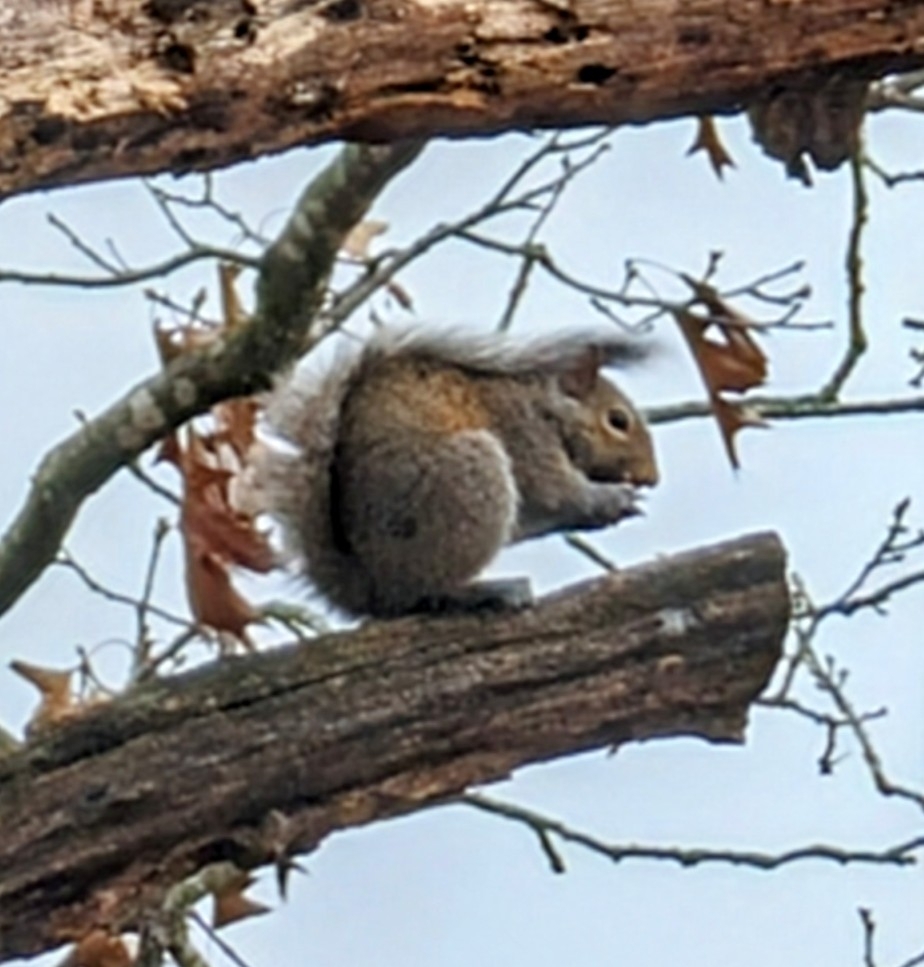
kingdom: Animalia
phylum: Chordata
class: Mammalia
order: Rodentia
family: Sciuridae
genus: Sciurus
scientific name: Sciurus carolinensis
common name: Eastern gray squirrel
